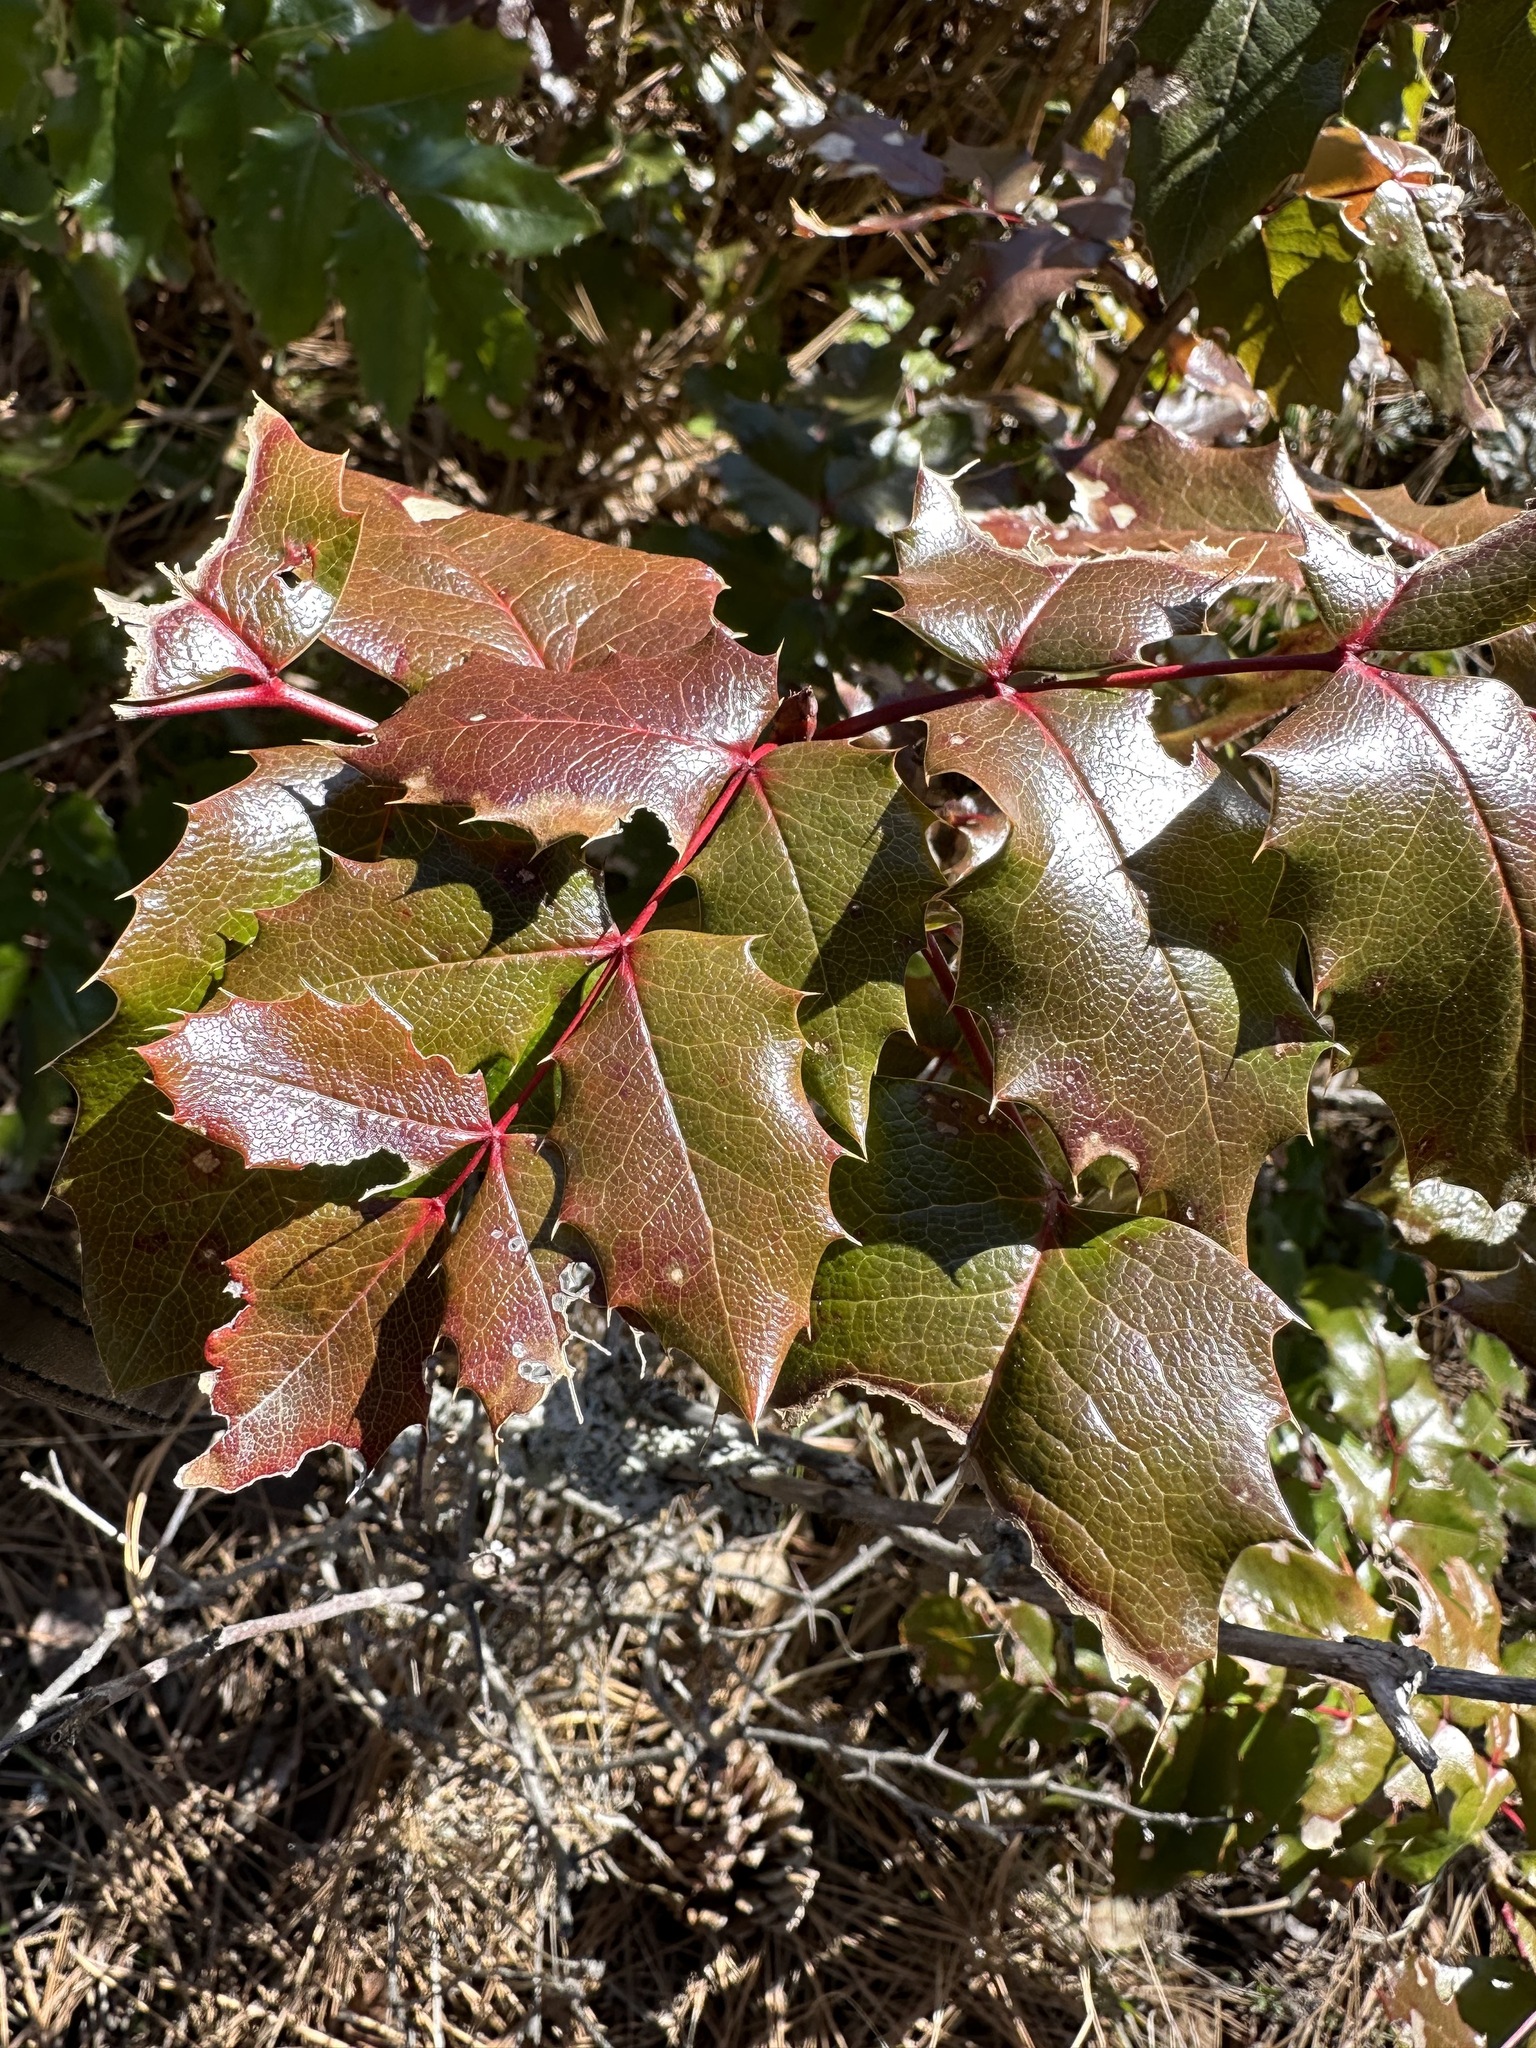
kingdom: Plantae
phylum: Tracheophyta
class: Magnoliopsida
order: Ranunculales
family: Berberidaceae
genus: Mahonia
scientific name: Mahonia aquifolium
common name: Oregon-grape
